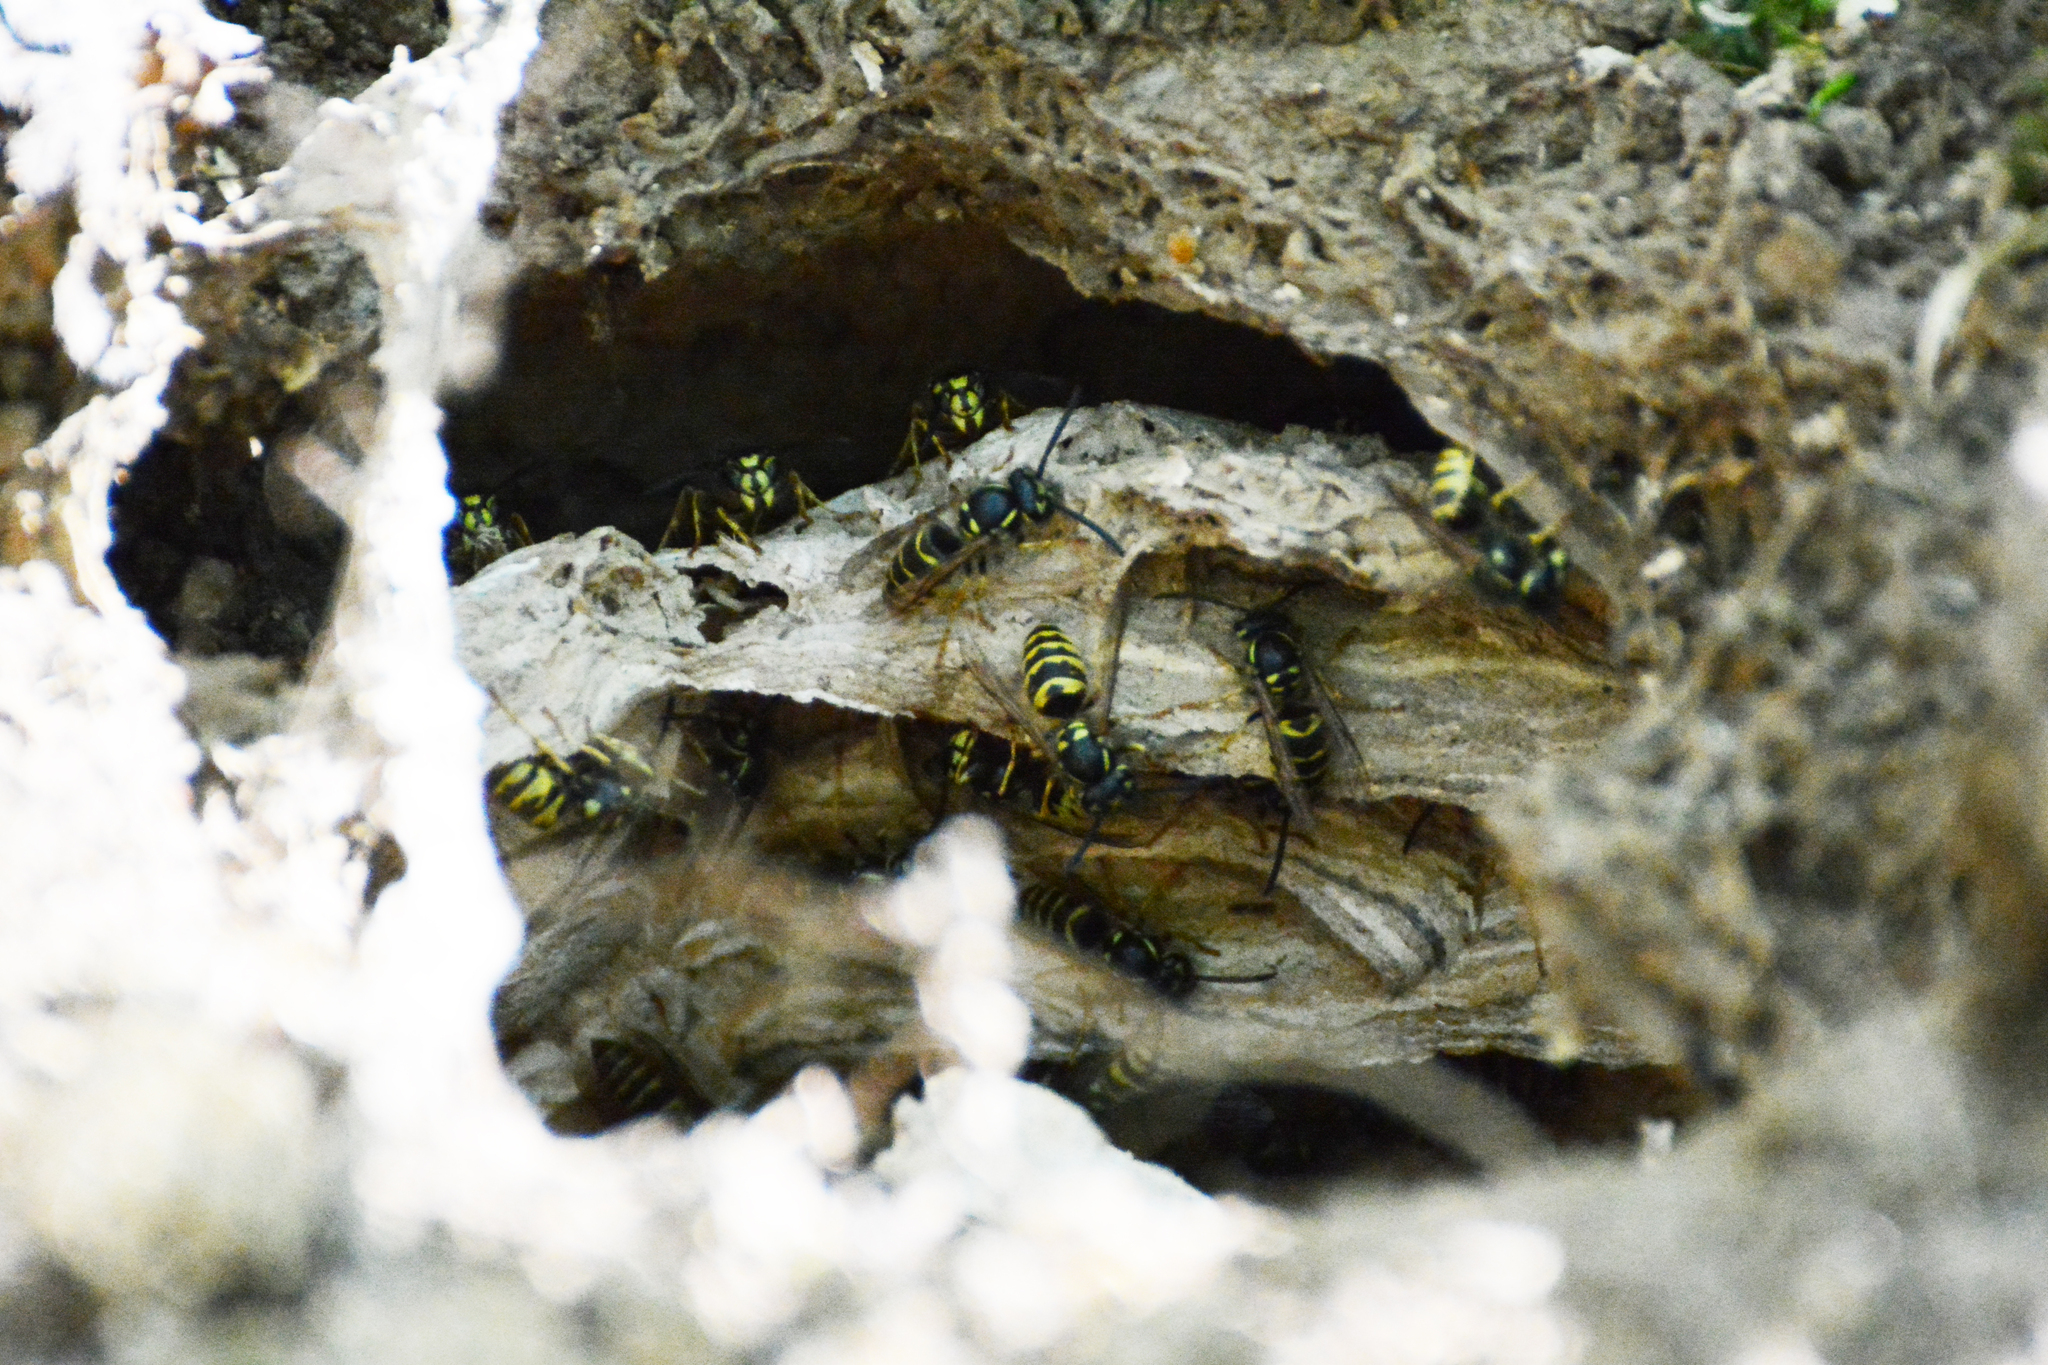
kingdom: Animalia
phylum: Arthropoda
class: Insecta
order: Hymenoptera
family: Vespidae
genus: Vespula
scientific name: Vespula vulgaris
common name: Common wasp
